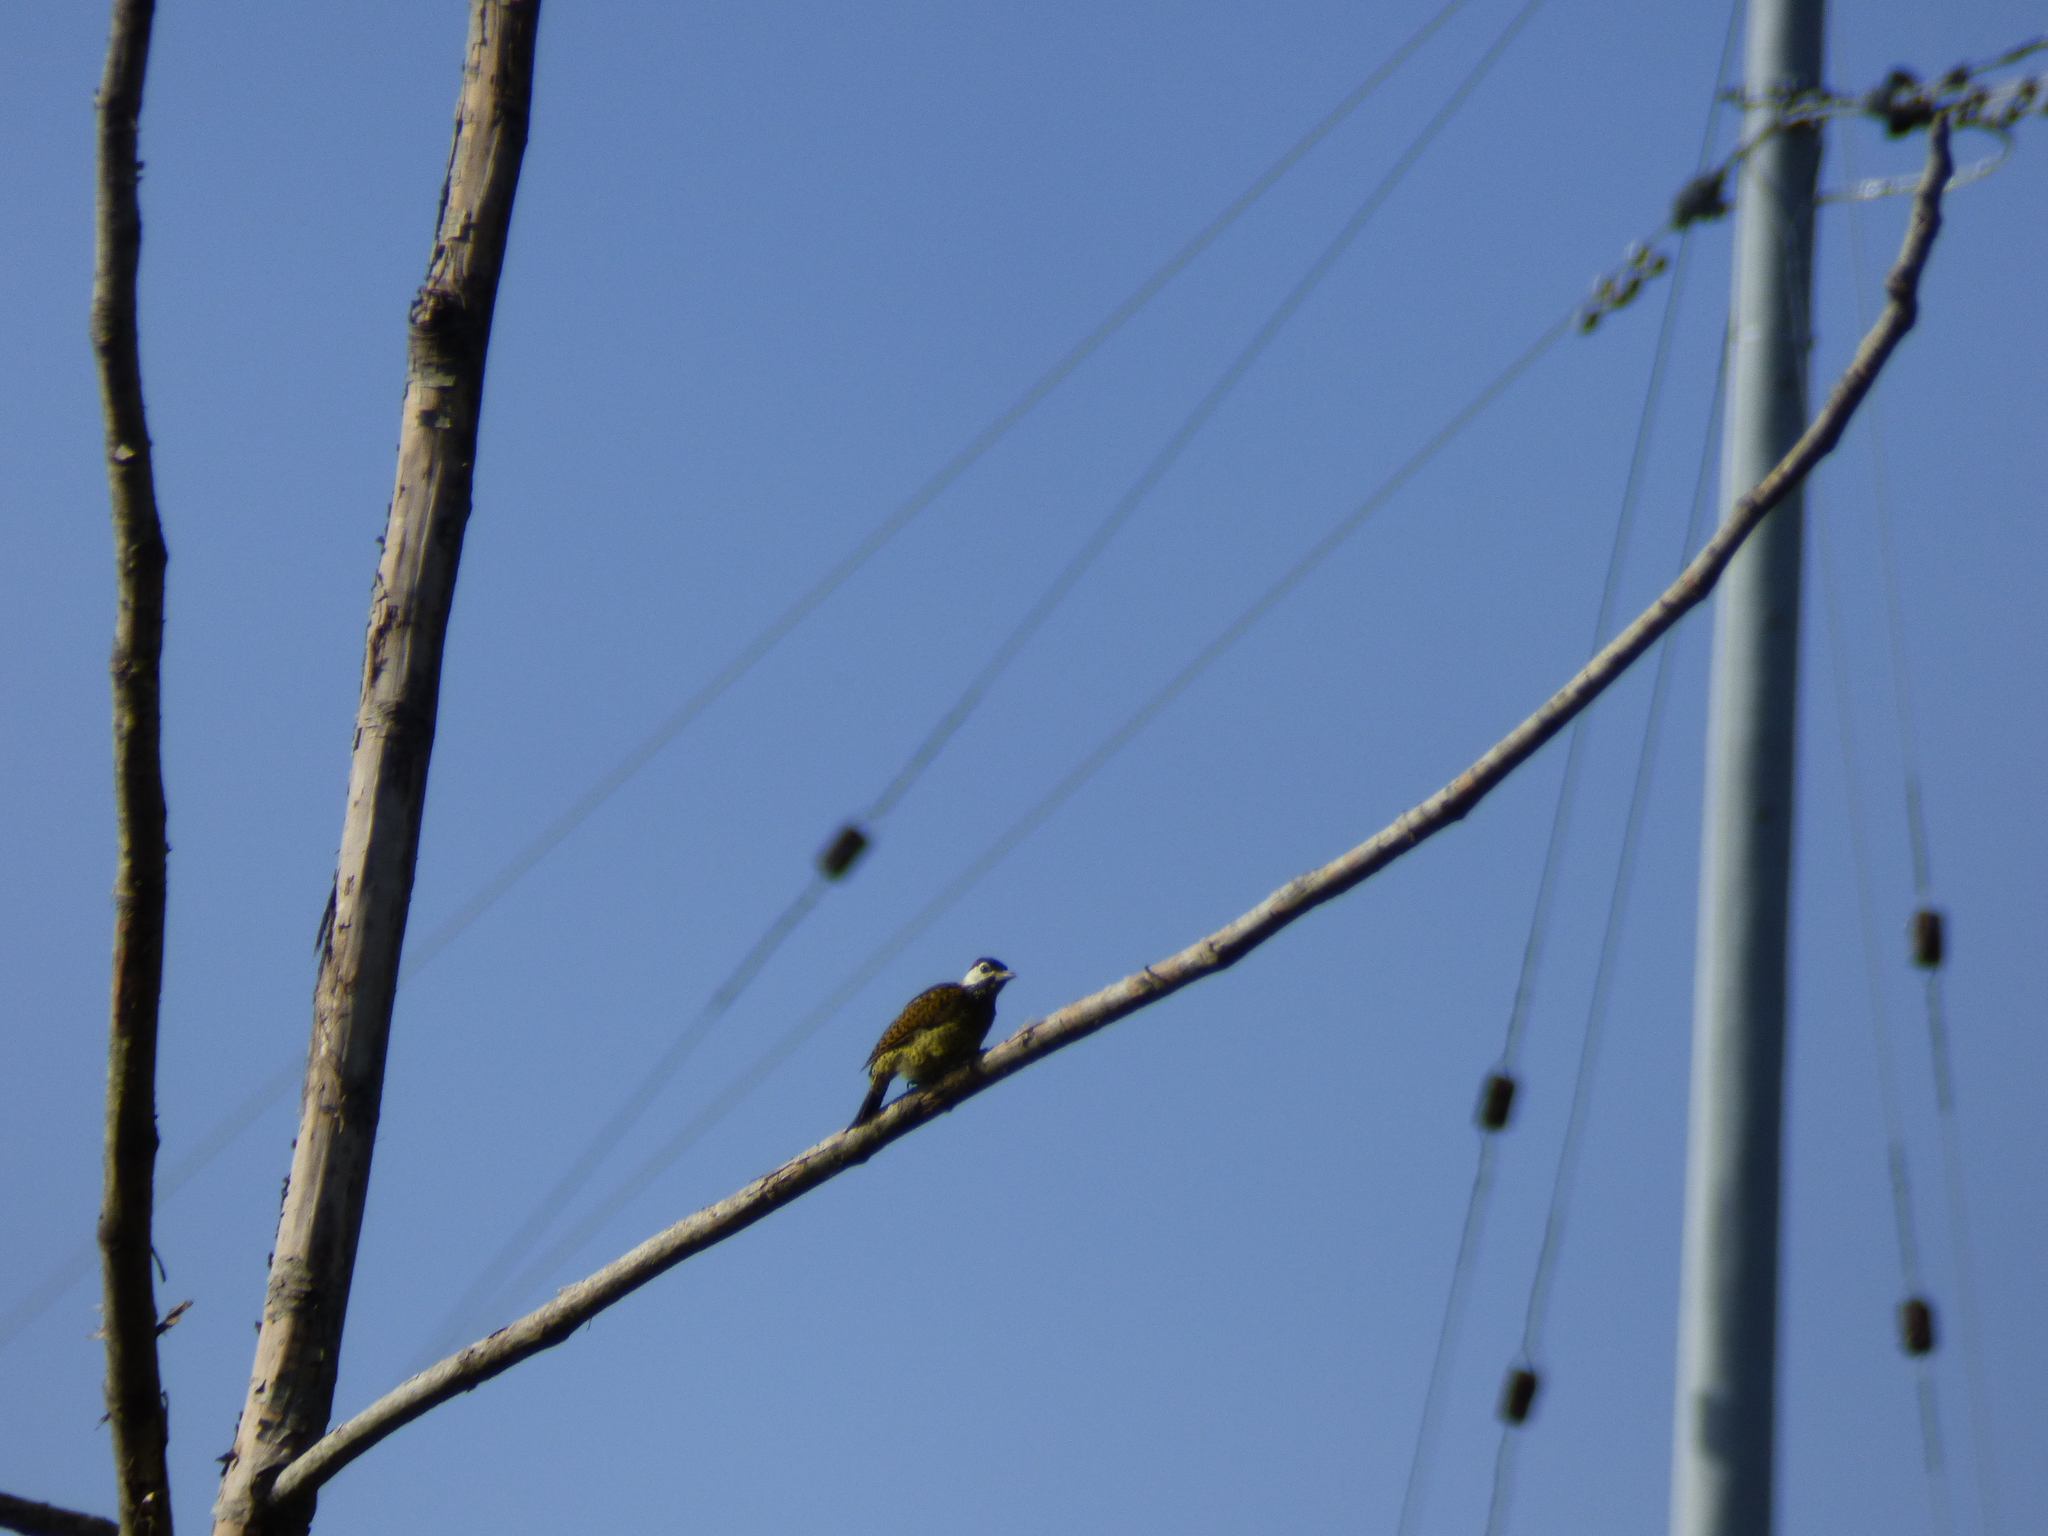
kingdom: Animalia
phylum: Chordata
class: Aves
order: Piciformes
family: Picidae
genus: Colaptes
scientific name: Colaptes punctigula
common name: Spot-breasted woodpecker
